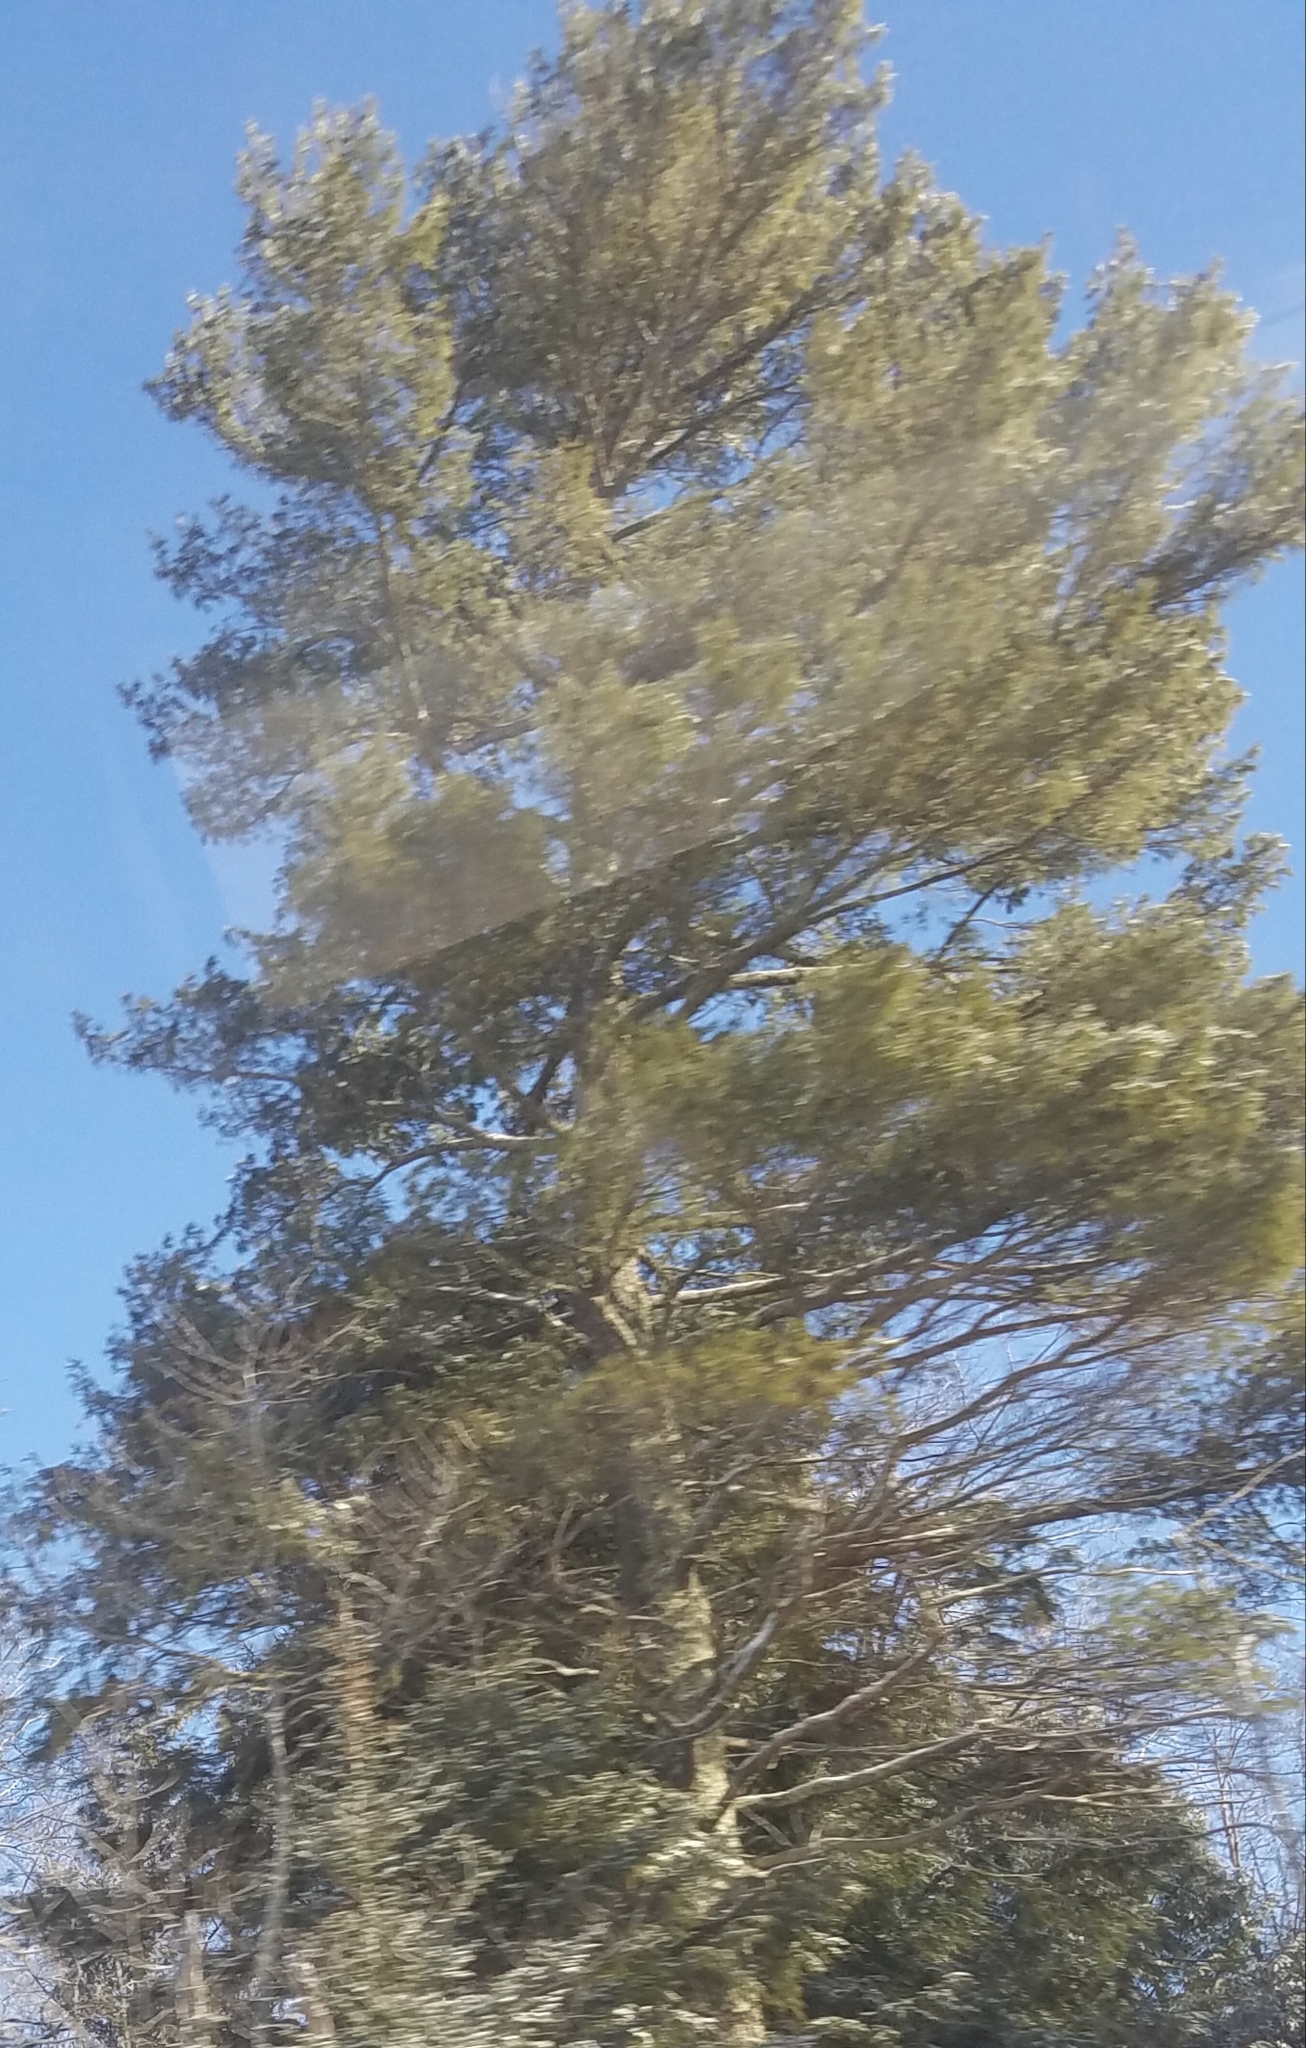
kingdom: Plantae
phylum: Tracheophyta
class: Pinopsida
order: Pinales
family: Pinaceae
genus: Pinus
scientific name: Pinus strobus
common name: Weymouth pine
